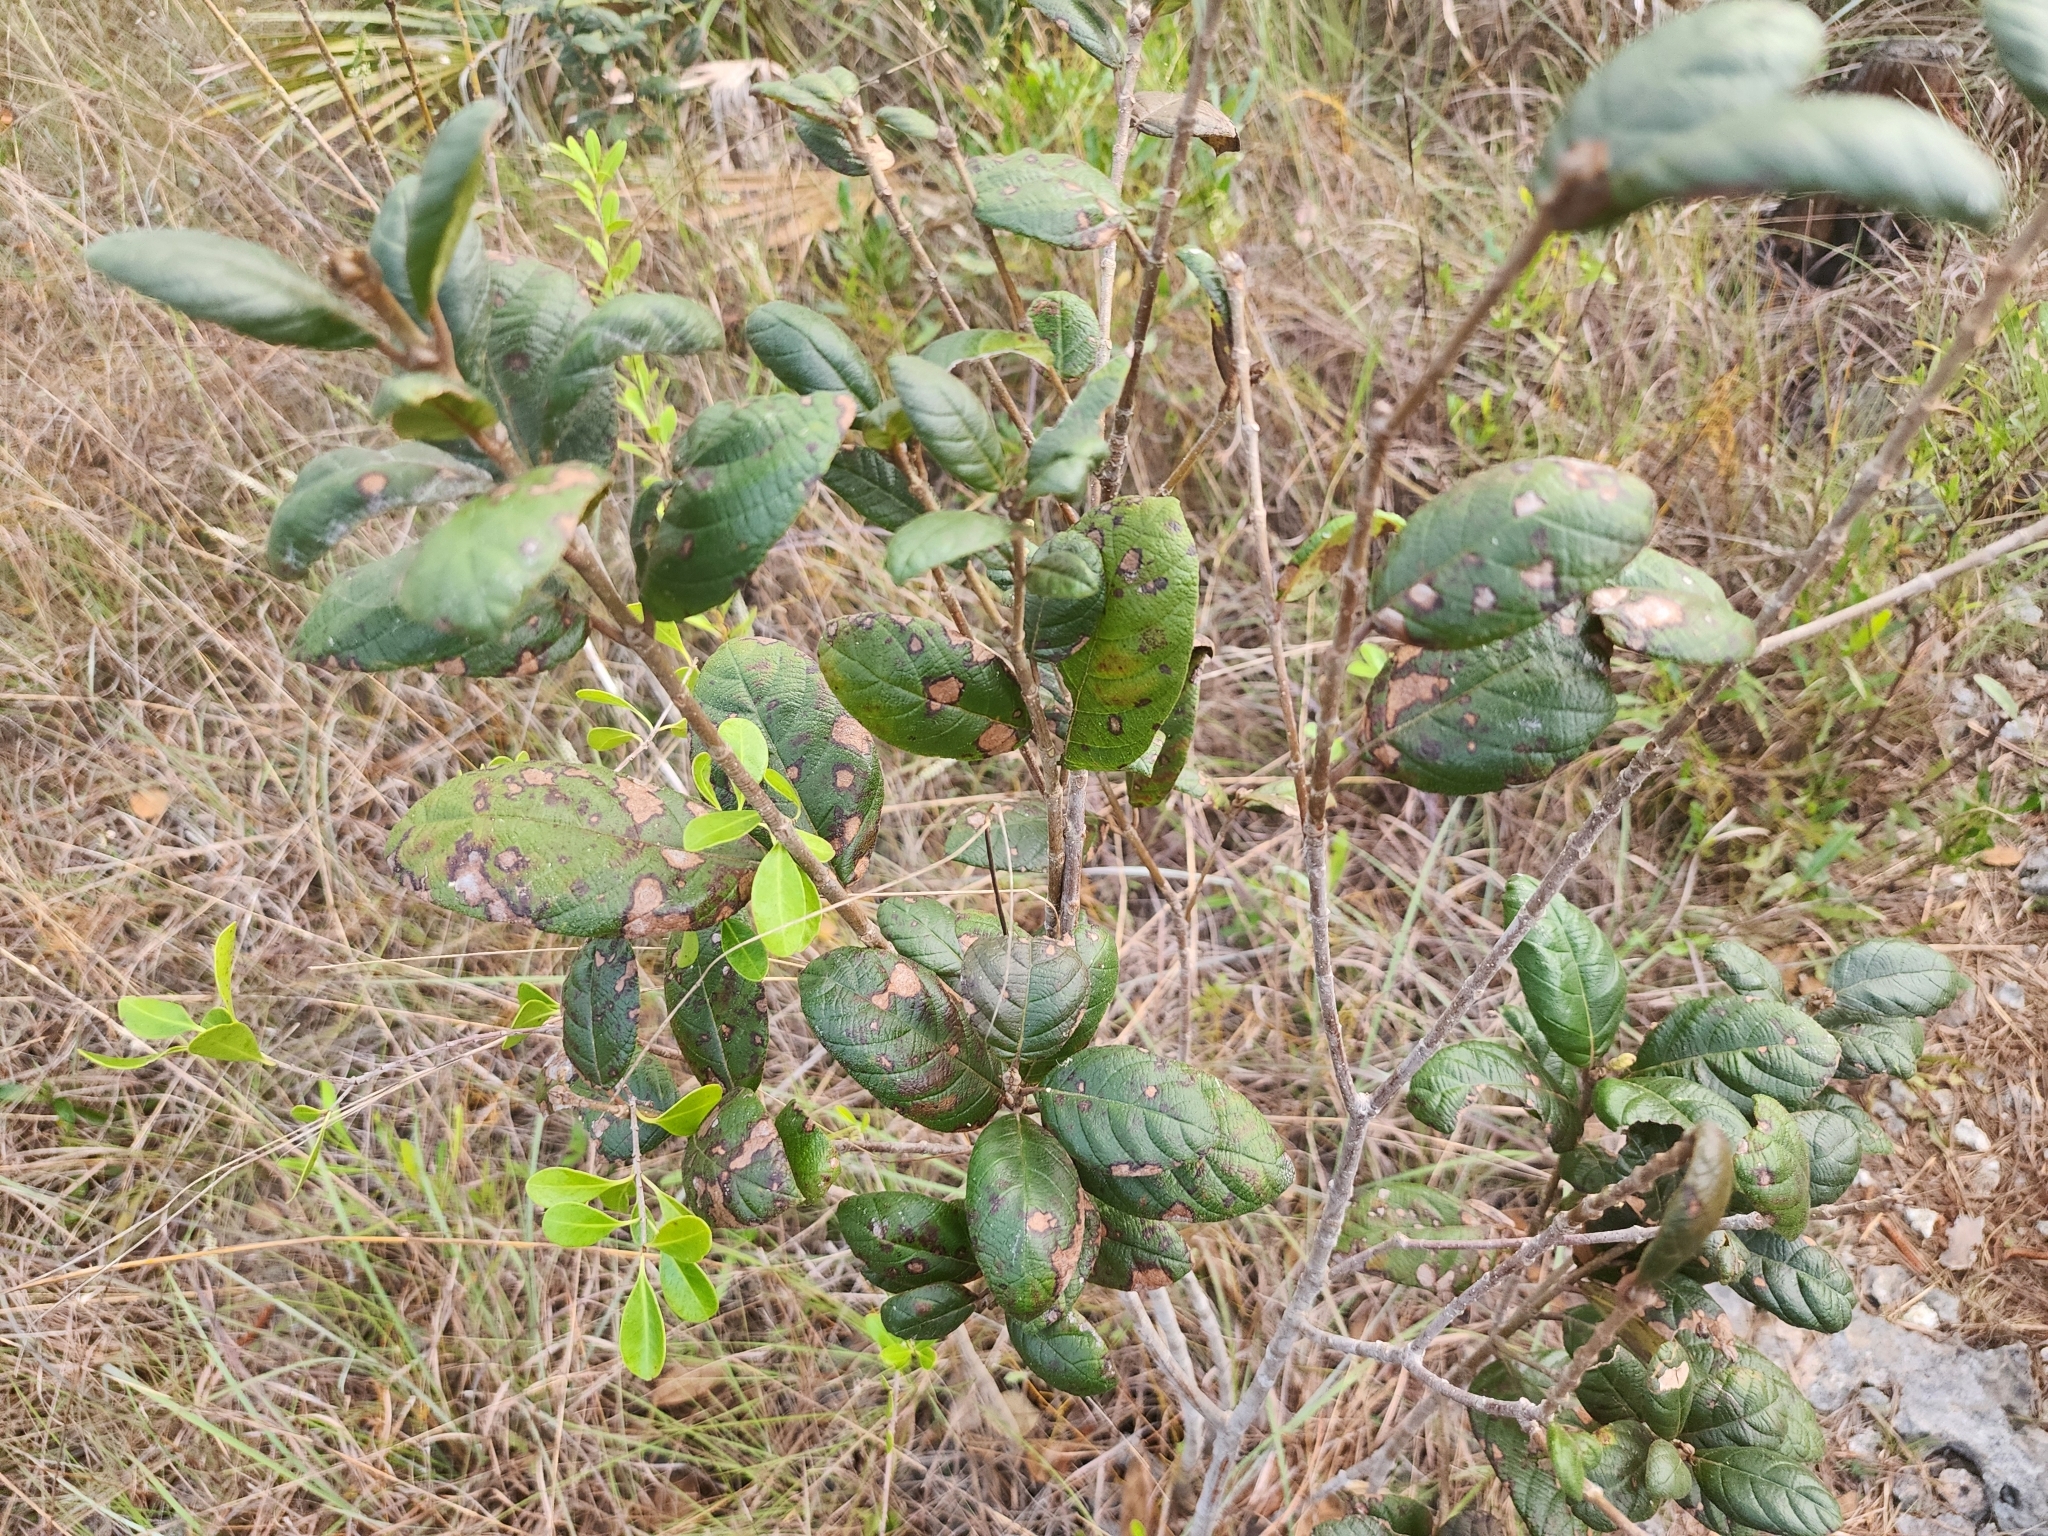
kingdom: Plantae
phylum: Tracheophyta
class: Magnoliopsida
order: Gentianales
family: Rubiaceae
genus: Guettarda
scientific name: Guettarda scabra
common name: Pigeon bay
